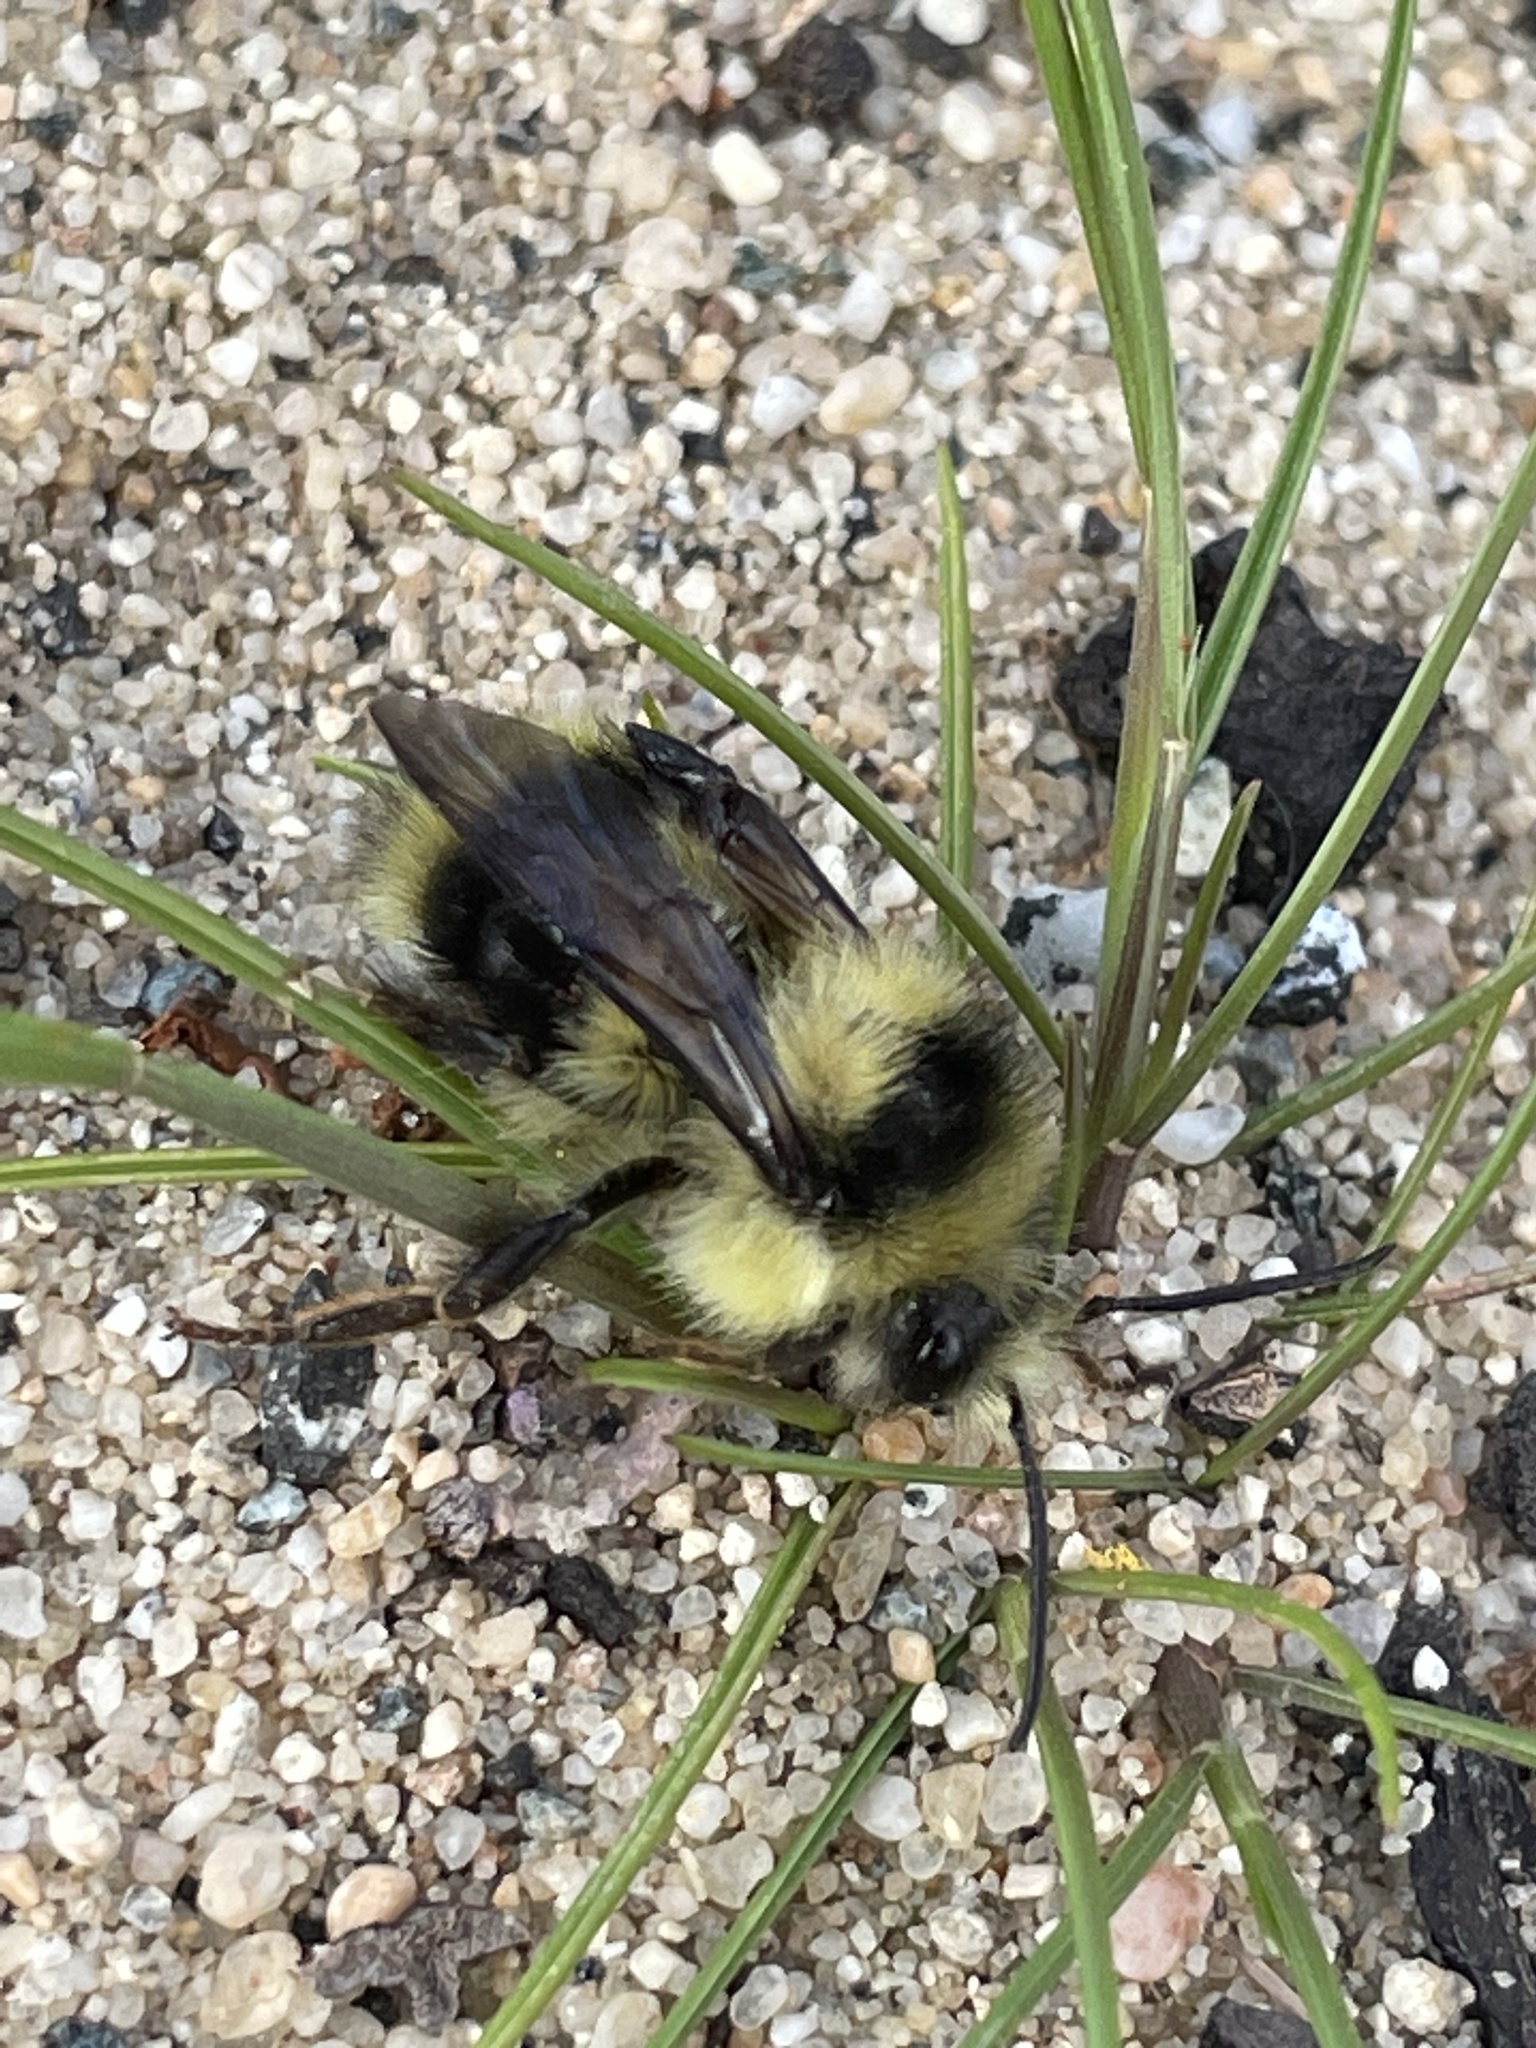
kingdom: Animalia
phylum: Arthropoda
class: Insecta
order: Hymenoptera
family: Apidae
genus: Bombus
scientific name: Bombus melanopygus
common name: Black tail bumble bee
